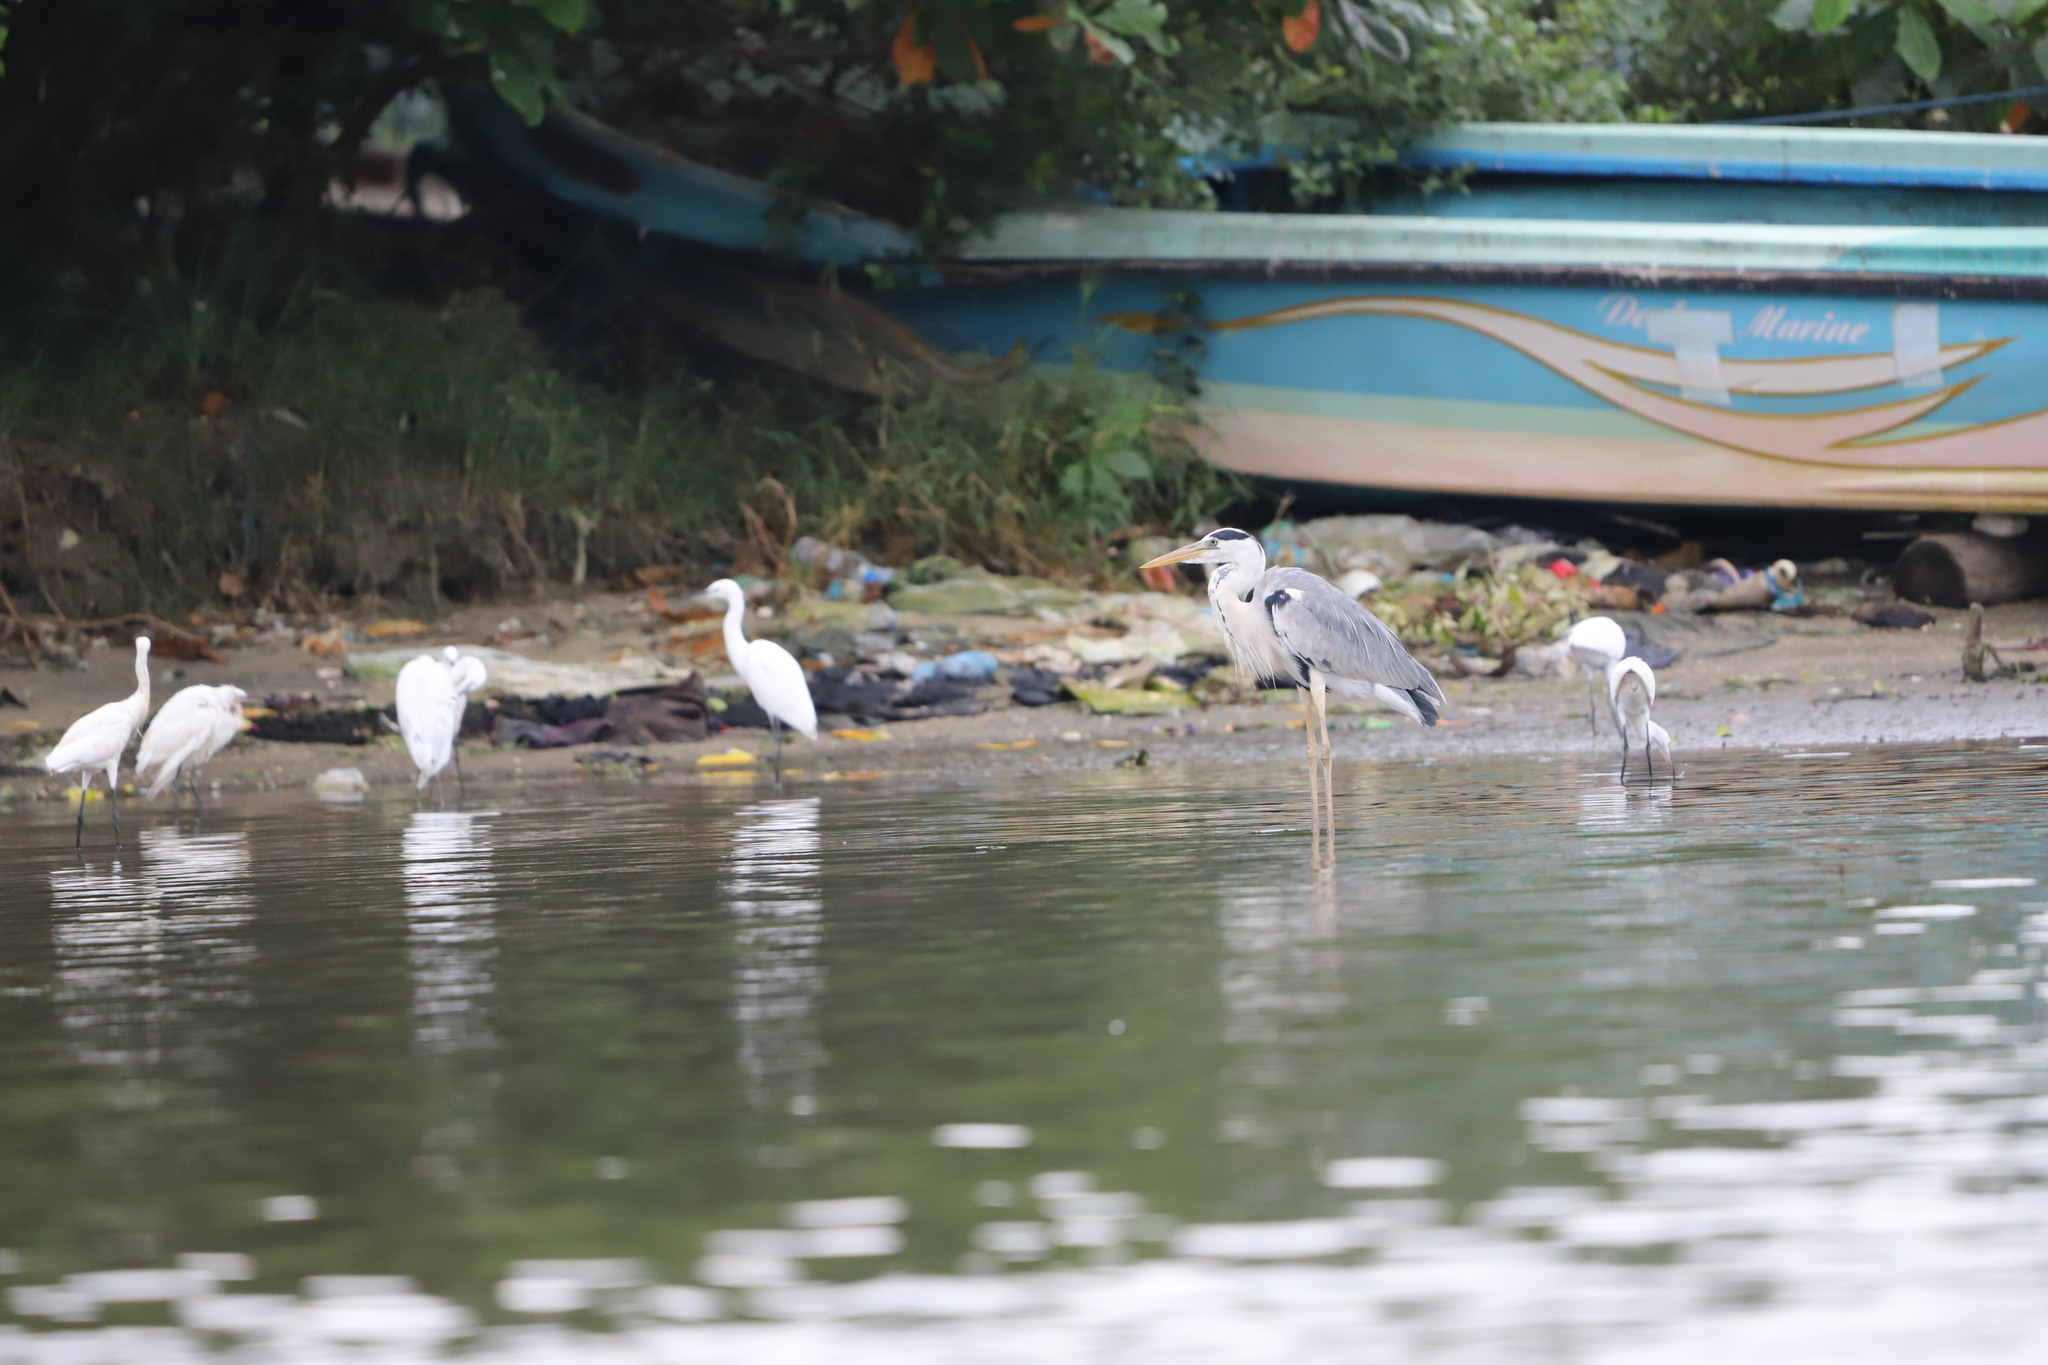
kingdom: Animalia
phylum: Chordata
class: Aves
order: Pelecaniformes
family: Ardeidae
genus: Egretta
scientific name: Egretta garzetta
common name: Little egret
